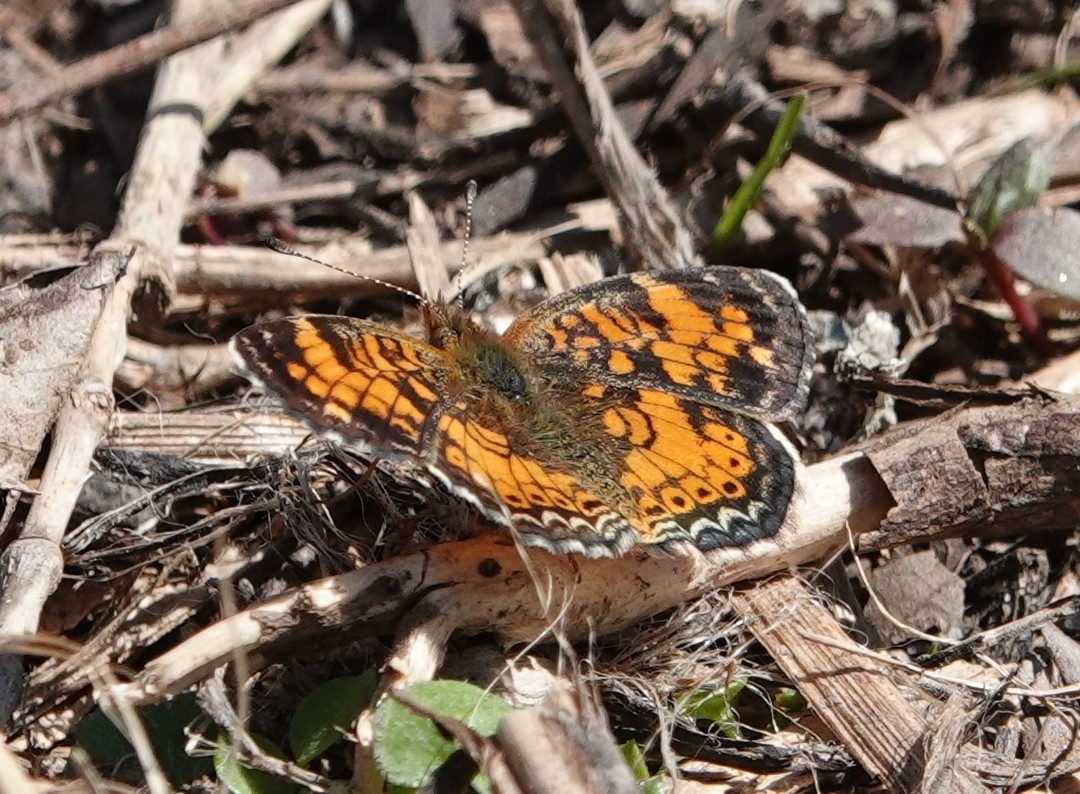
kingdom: Animalia
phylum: Arthropoda
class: Insecta
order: Lepidoptera
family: Nymphalidae
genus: Phyciodes
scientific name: Phyciodes tharos
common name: Pearl crescent
